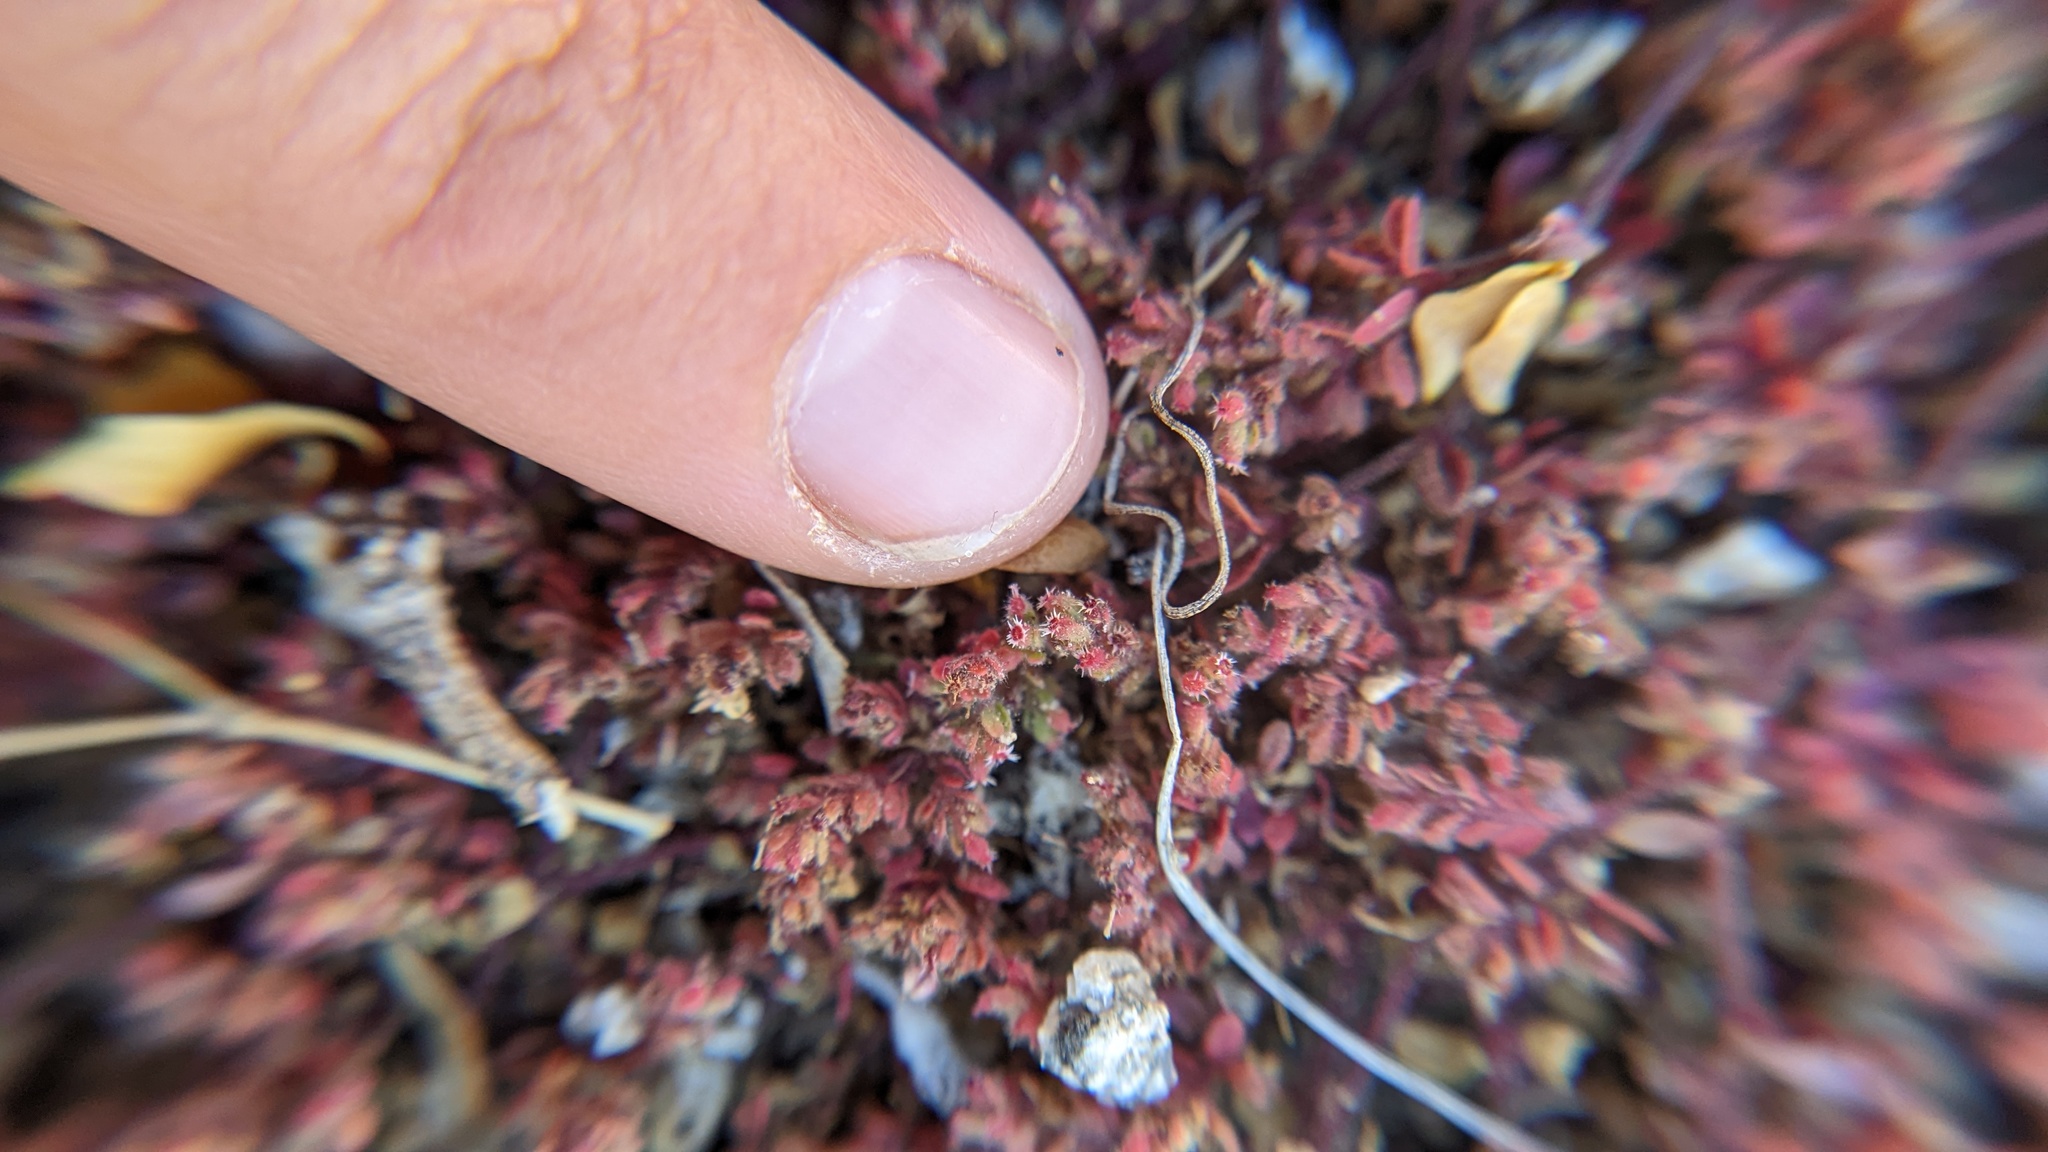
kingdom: Plantae
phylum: Tracheophyta
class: Magnoliopsida
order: Malpighiales
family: Euphorbiaceae
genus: Euphorbia
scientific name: Euphorbia setiloba
